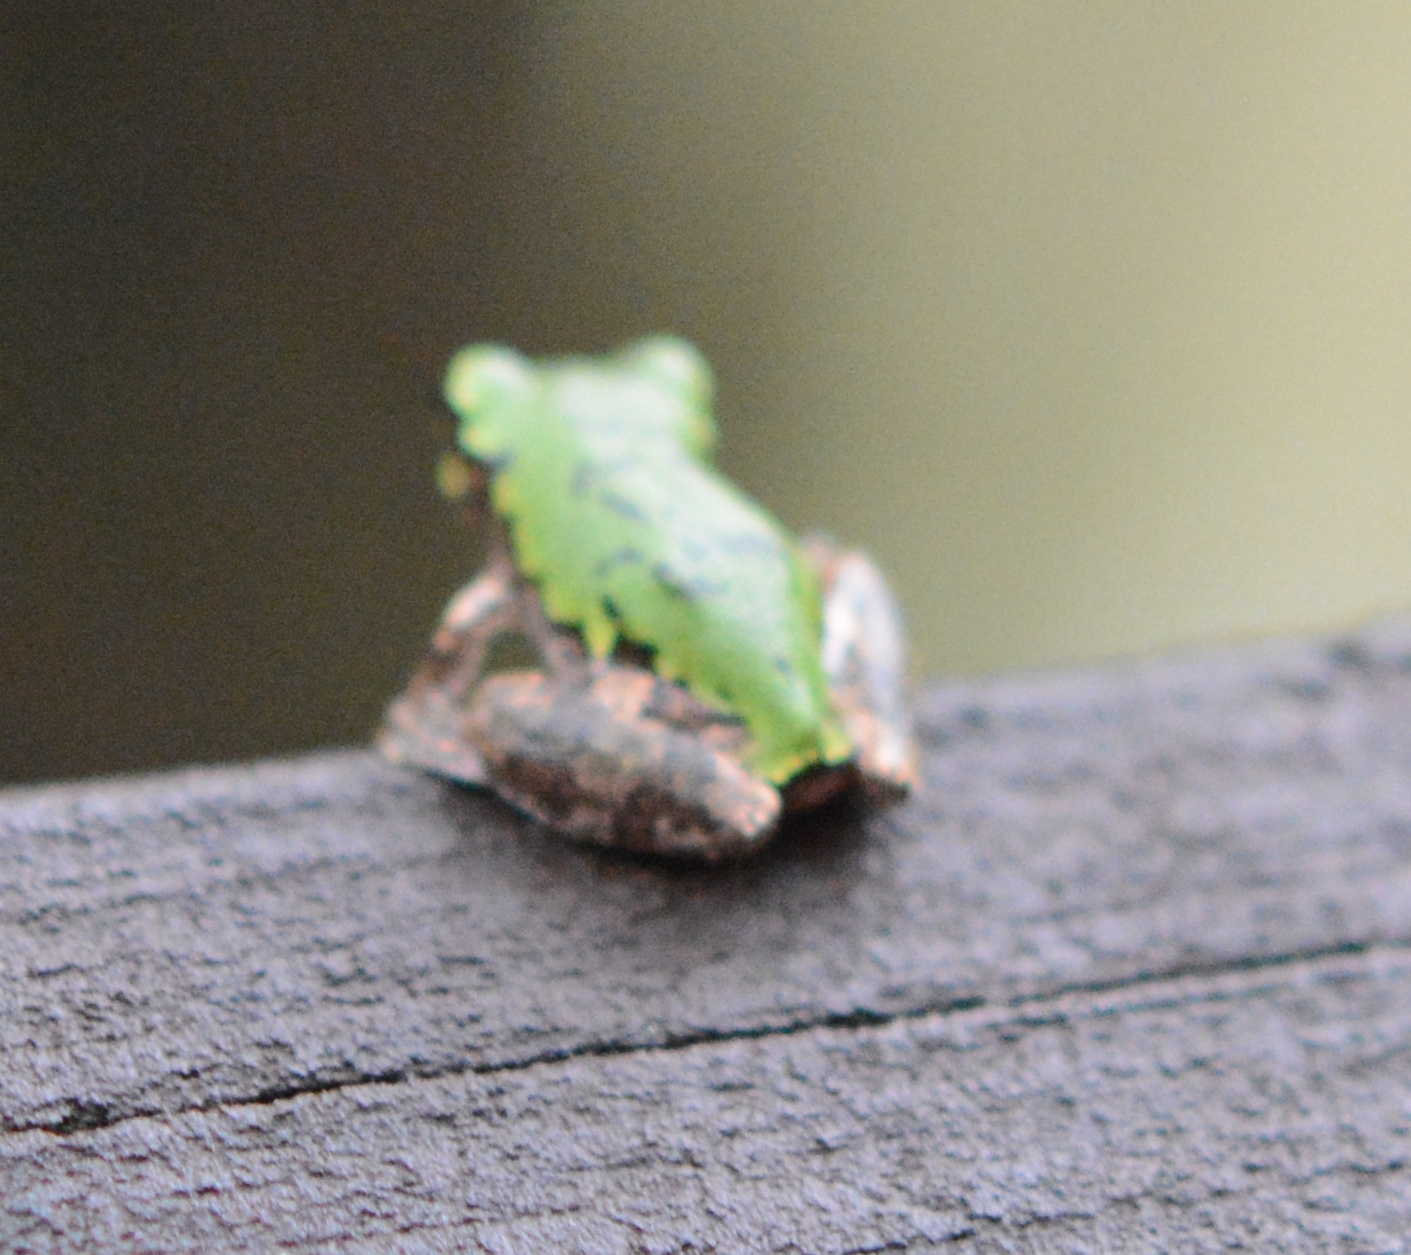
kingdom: Animalia
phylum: Chordata
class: Amphibia
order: Anura
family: Hylidae
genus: Dryophytes
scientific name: Dryophytes avivoca
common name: Bird-voiced treefrog
